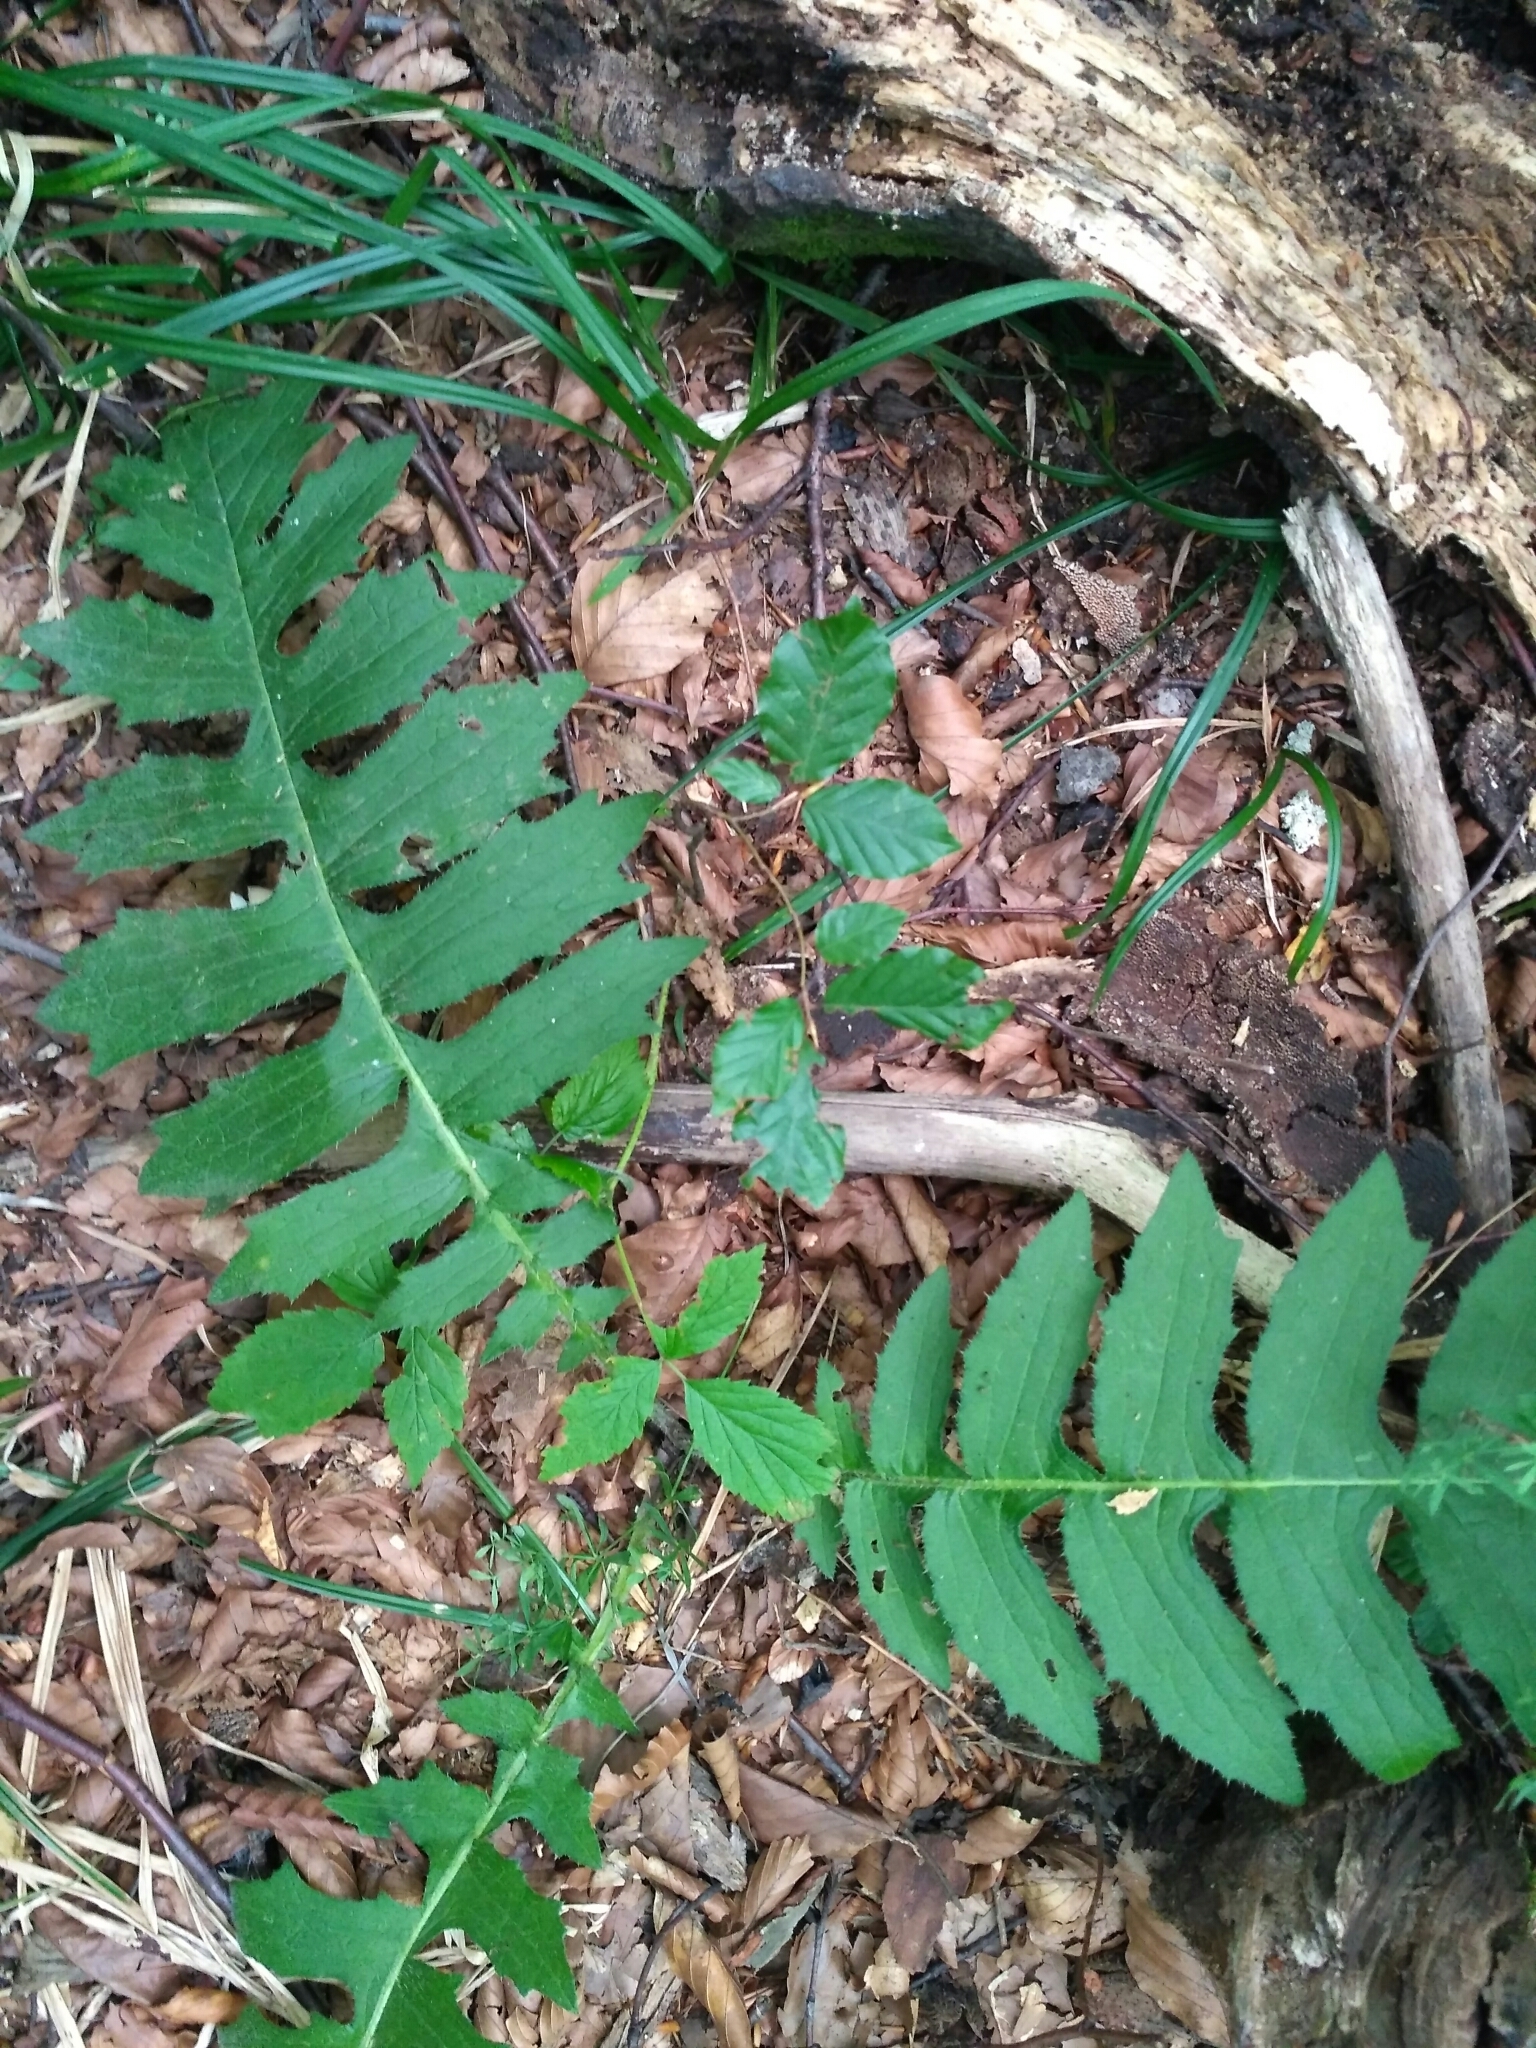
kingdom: Plantae
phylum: Tracheophyta
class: Magnoliopsida
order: Asterales
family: Asteraceae
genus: Cirsium
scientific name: Cirsium erisithales
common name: Yellow thistle
